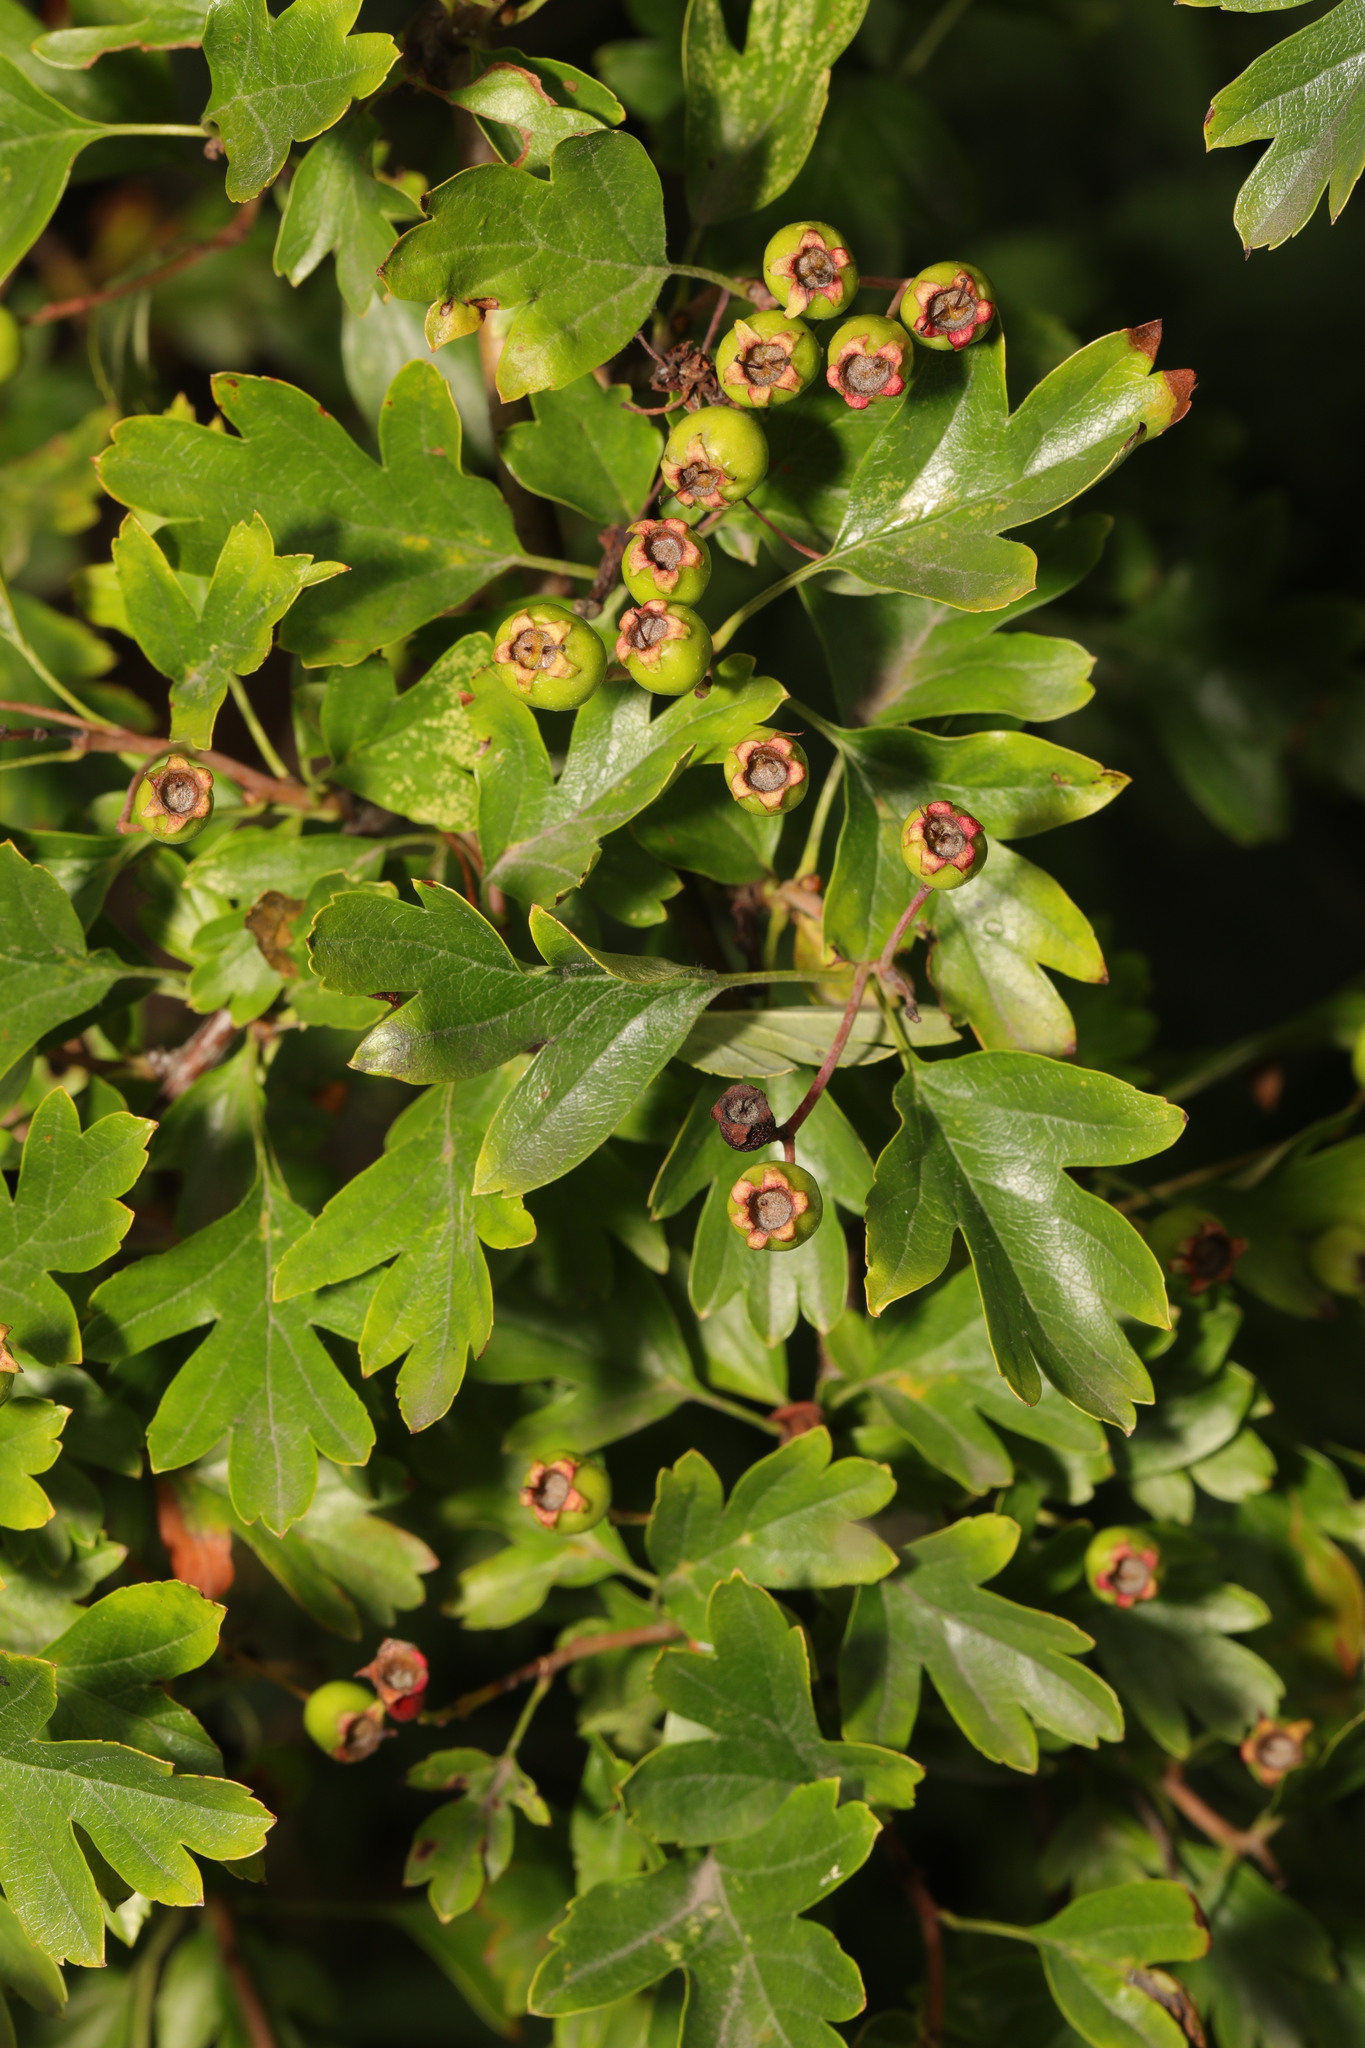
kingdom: Plantae
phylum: Tracheophyta
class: Magnoliopsida
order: Rosales
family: Rosaceae
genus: Crataegus
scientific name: Crataegus monogyna
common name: Hawthorn
